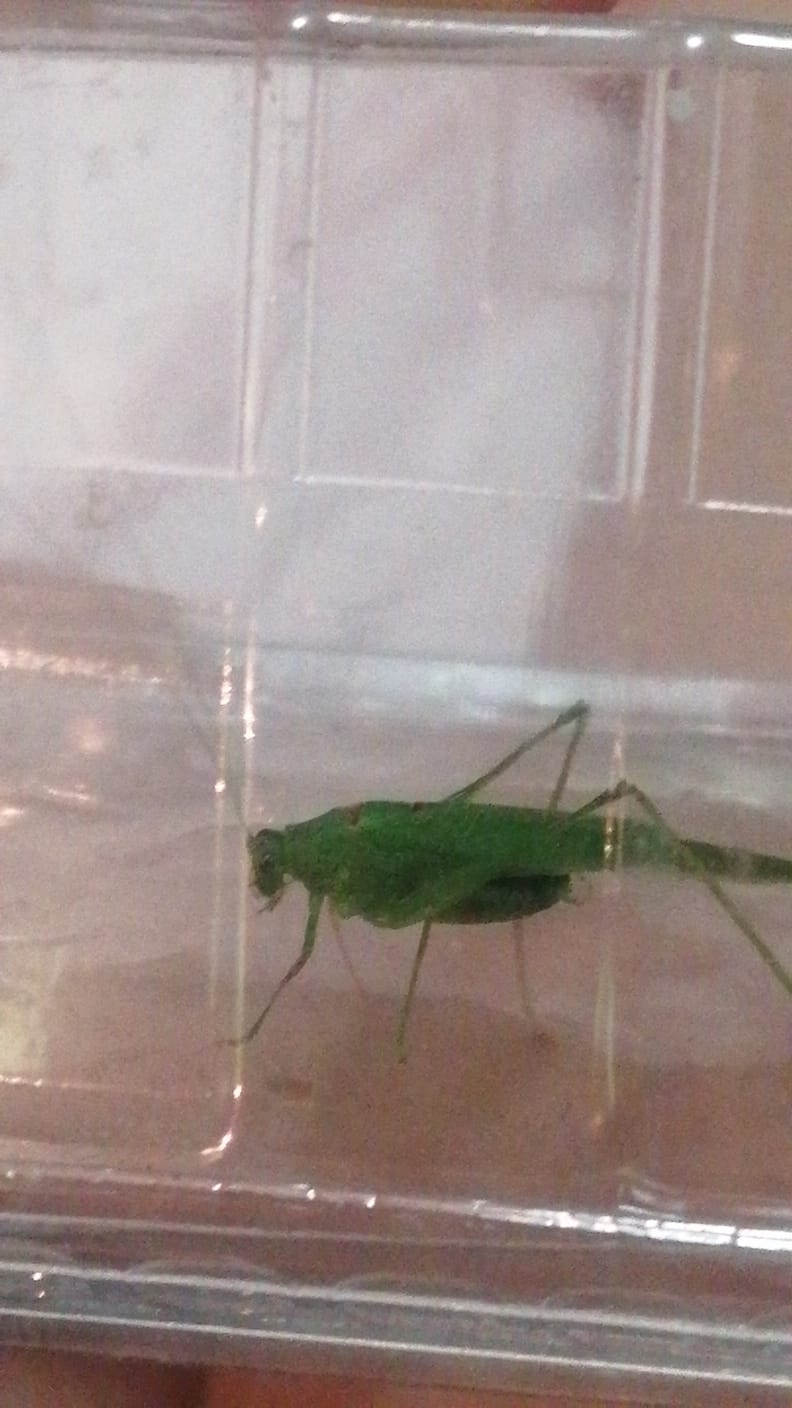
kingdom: Animalia
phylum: Arthropoda
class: Insecta
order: Orthoptera
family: Tettigoniidae
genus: Phaneroptera
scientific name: Phaneroptera nana
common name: Southern sickle bush-cricket
